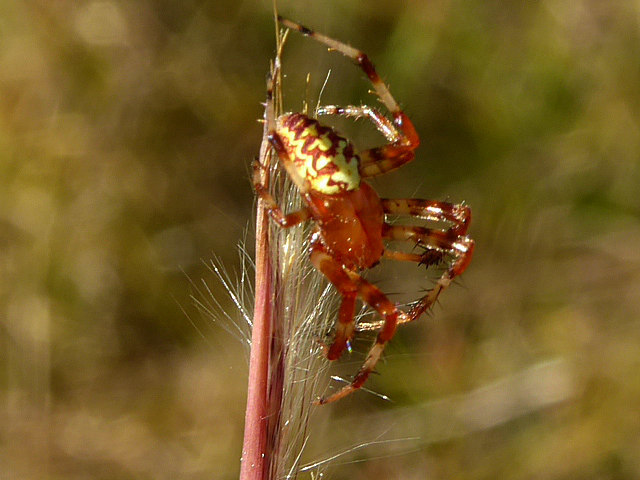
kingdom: Animalia
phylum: Arthropoda
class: Arachnida
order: Araneae
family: Araneidae
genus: Araneus
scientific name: Araneus marmoreus
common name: Marbled orbweaver
